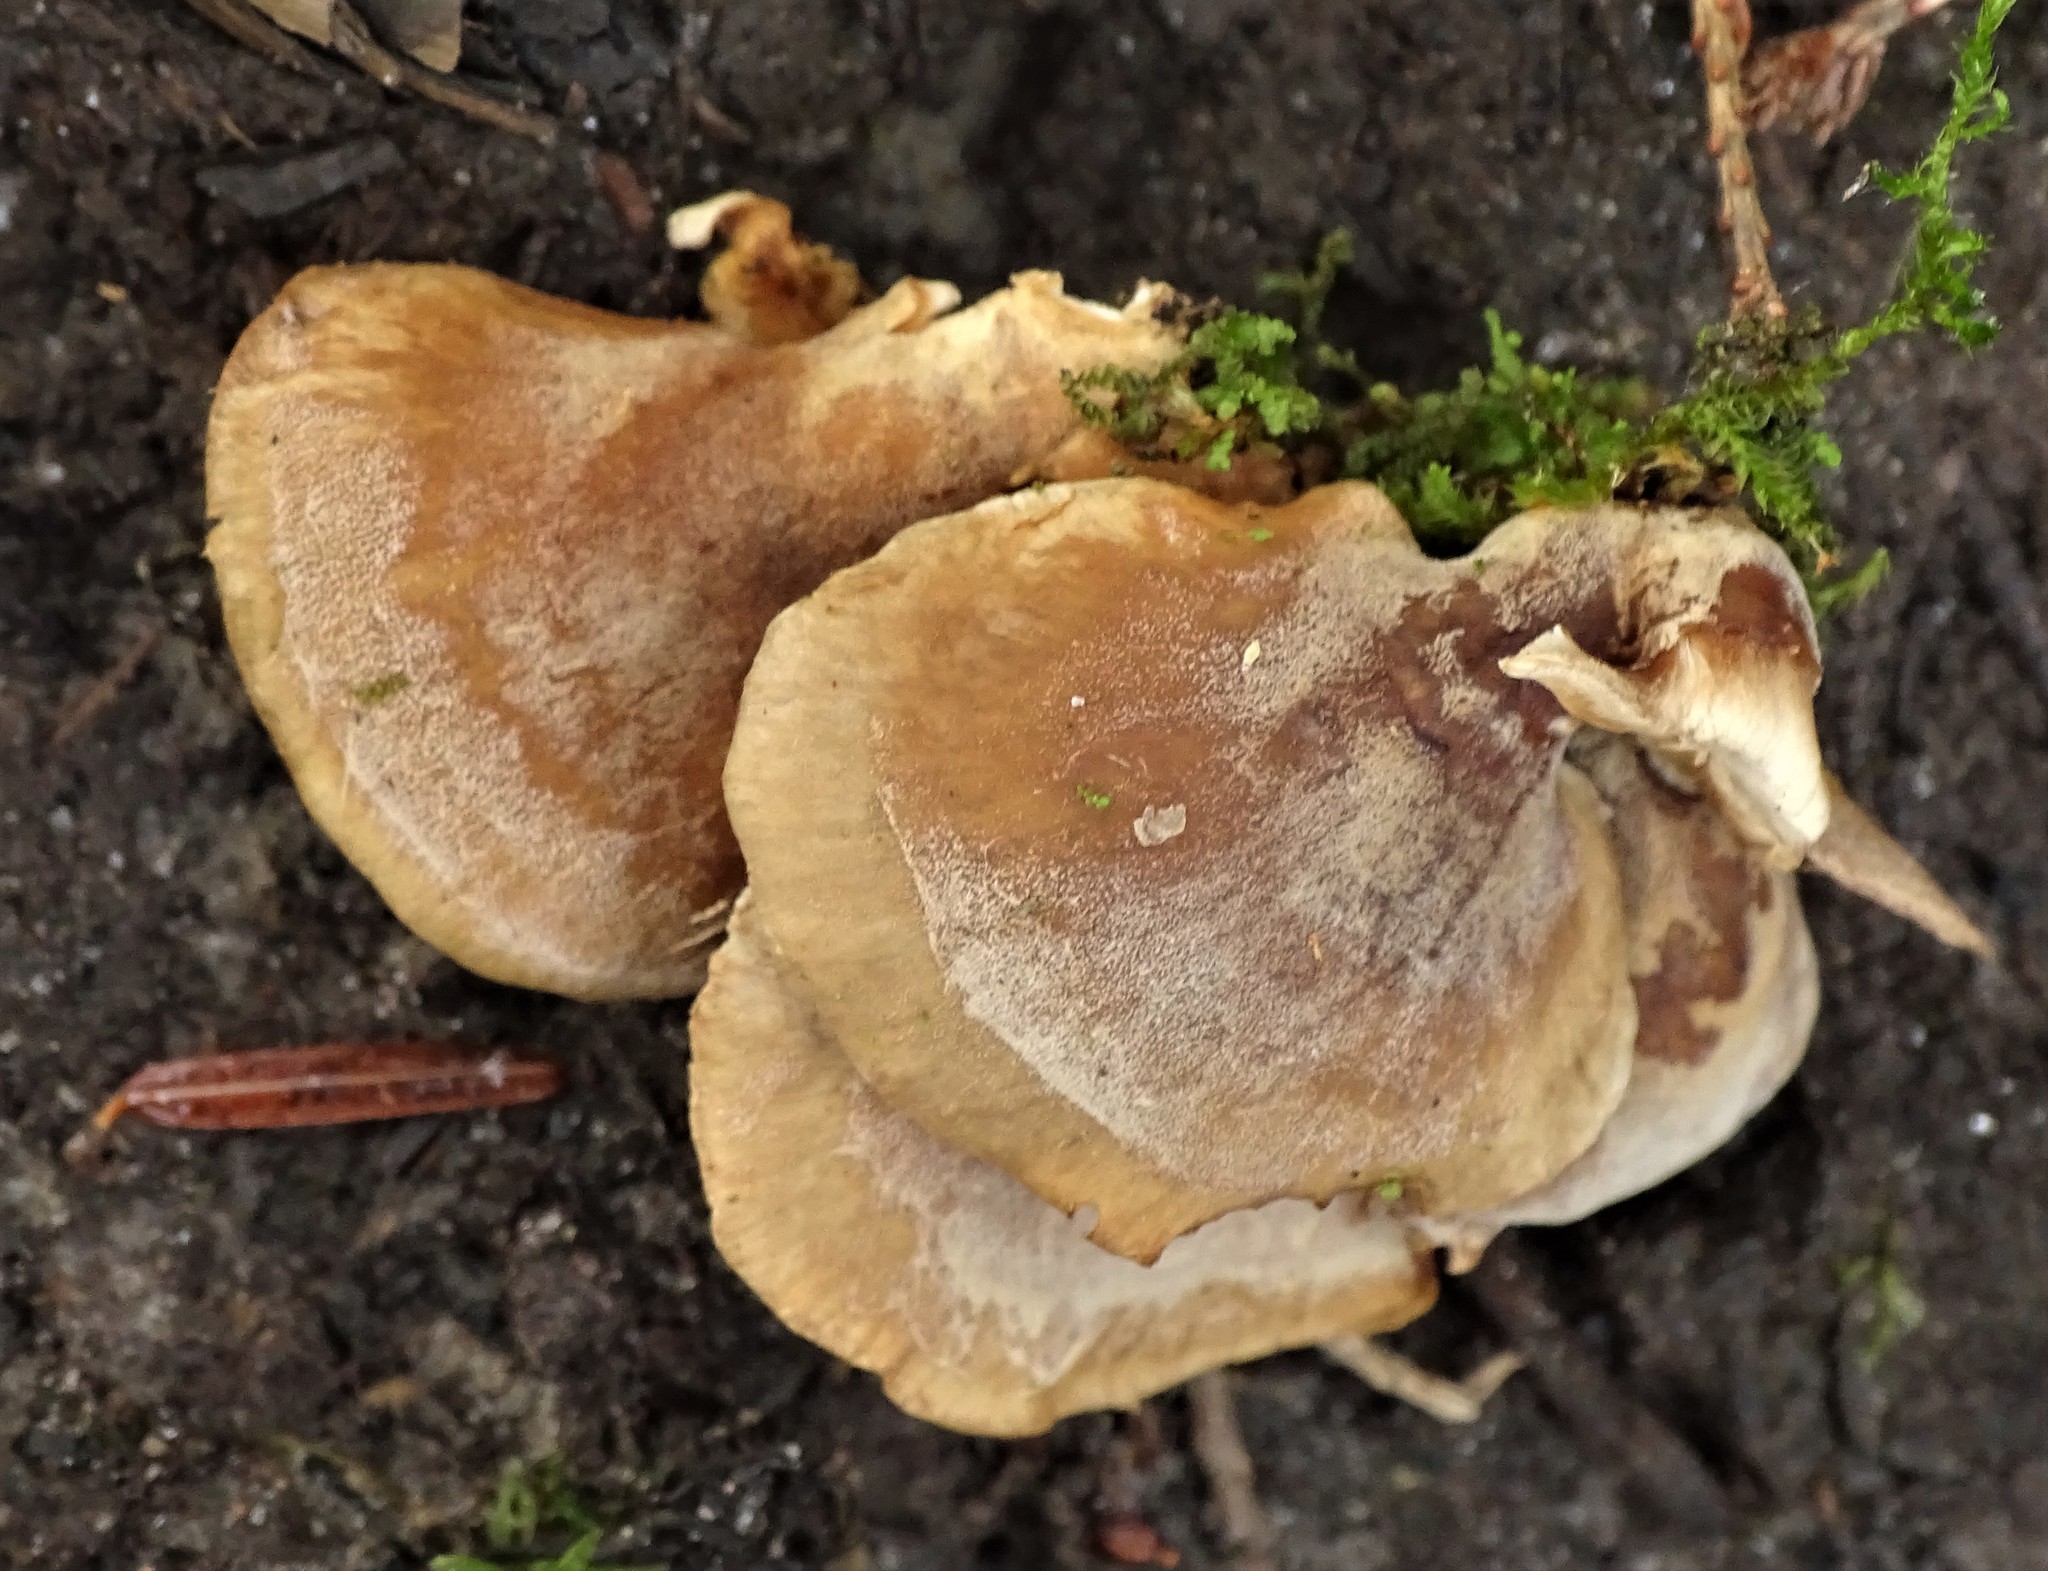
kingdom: Fungi
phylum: Basidiomycota
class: Agaricomycetes
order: Agaricales
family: Mycenaceae
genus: Panellus
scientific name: Panellus stipticus
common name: Bitter oysterling
